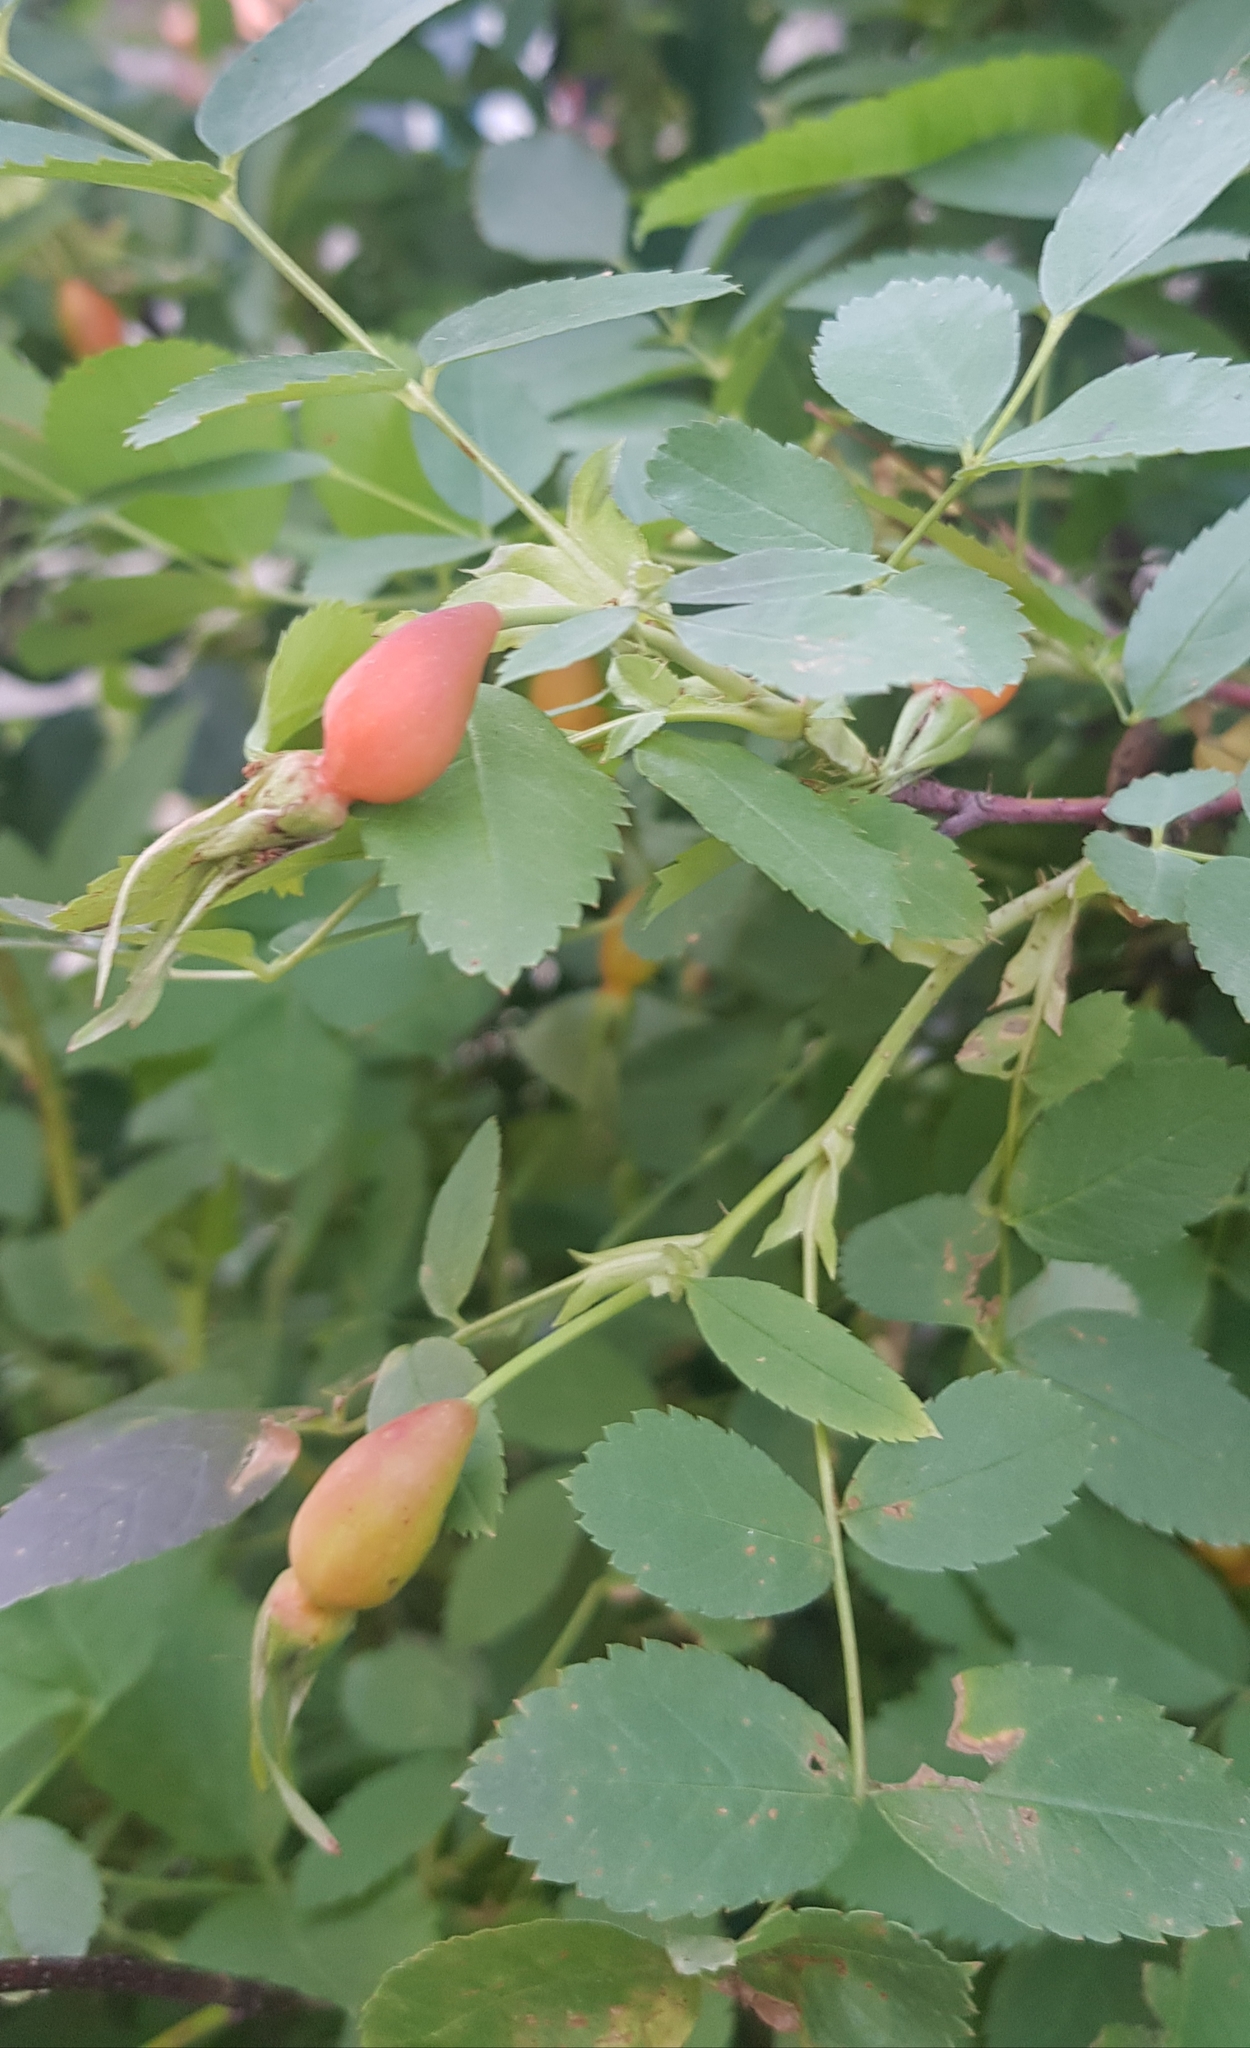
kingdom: Plantae
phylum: Tracheophyta
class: Magnoliopsida
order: Rosales
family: Rosaceae
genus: Rosa
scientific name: Rosa acicularis
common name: Prickly rose
